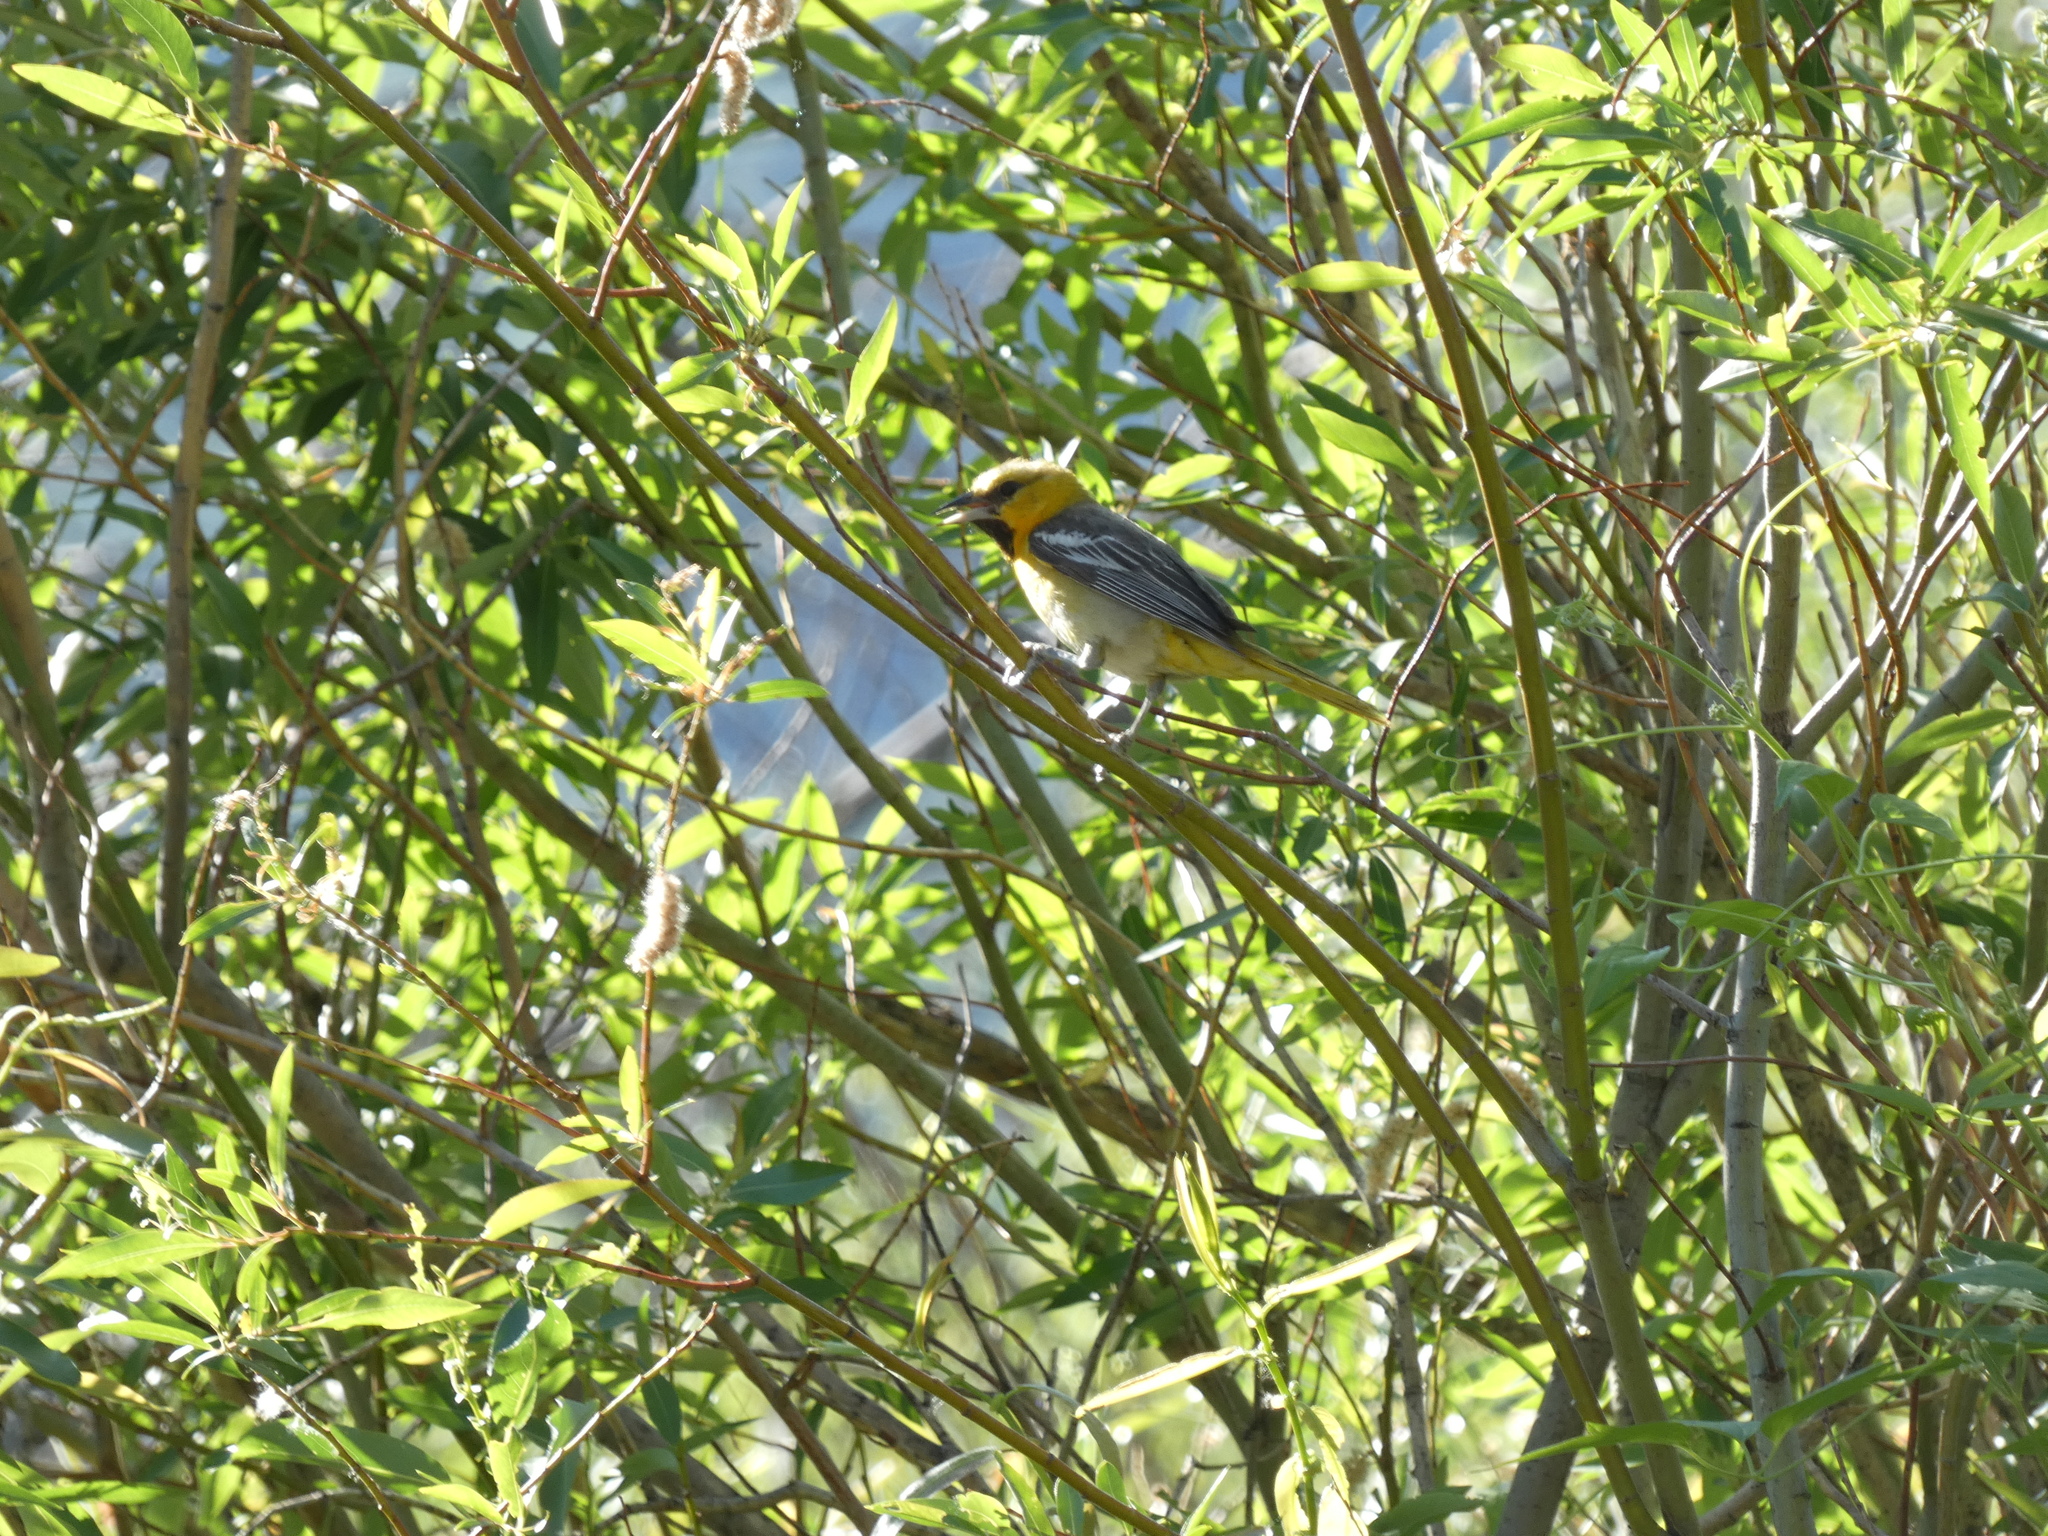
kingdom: Animalia
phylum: Chordata
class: Aves
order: Passeriformes
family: Icteridae
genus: Icterus
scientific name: Icterus bullockii
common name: Bullock's oriole
